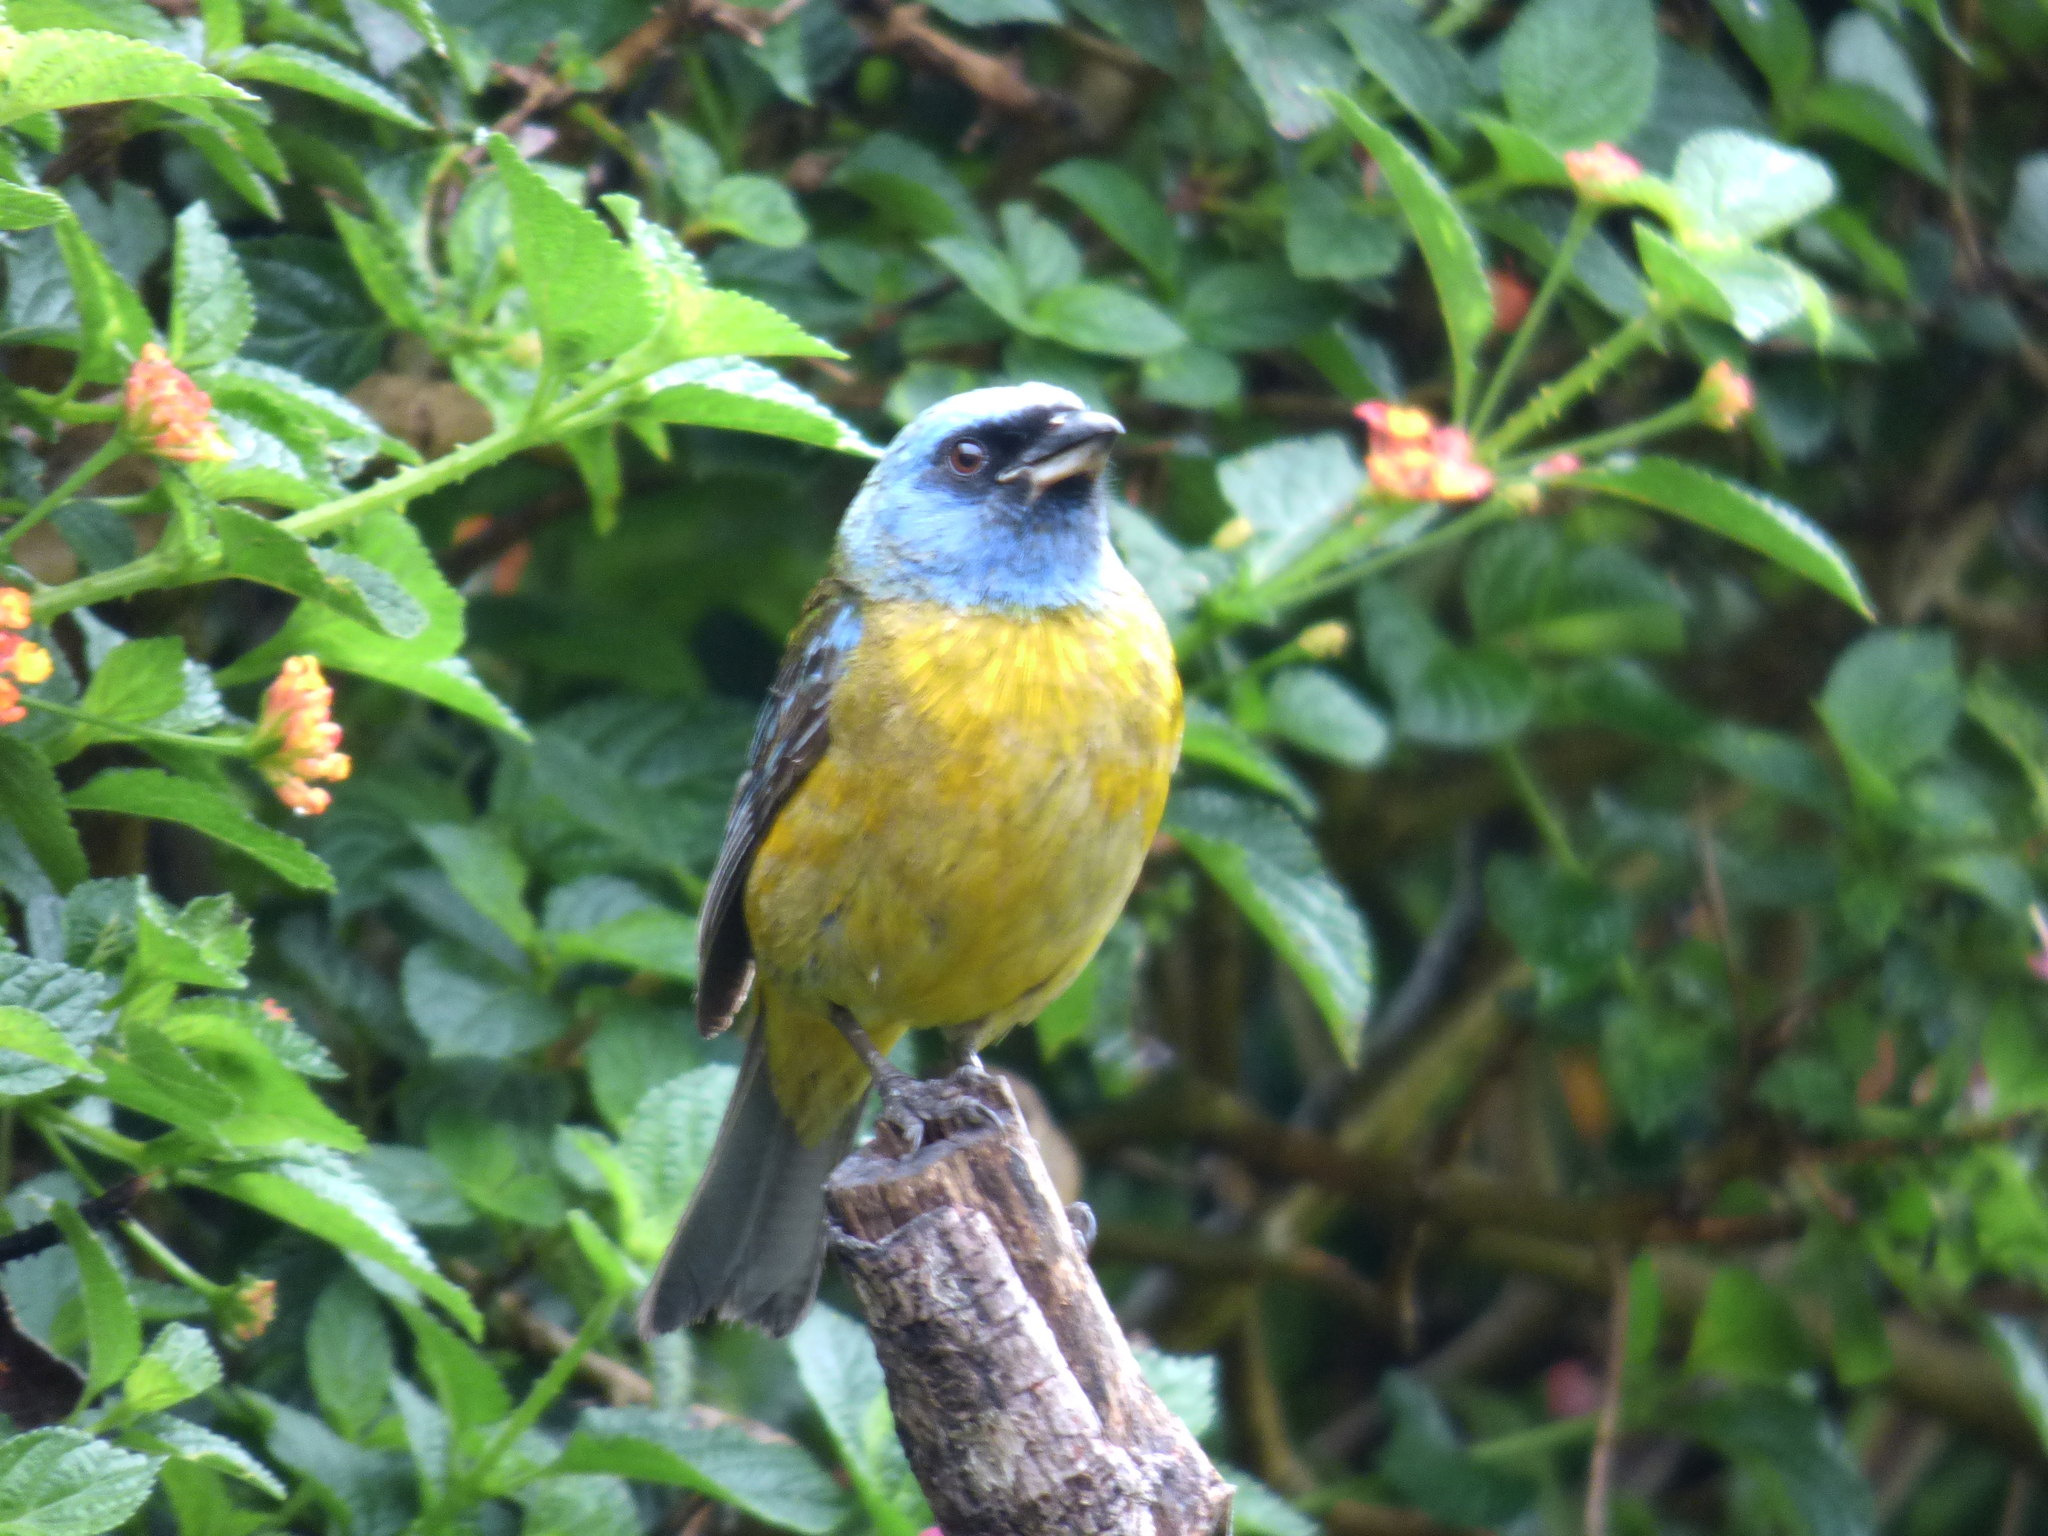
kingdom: Animalia
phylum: Chordata
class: Aves
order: Passeriformes
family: Thraupidae
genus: Rauenia
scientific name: Rauenia bonariensis
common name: Blue-and-yellow tanager
